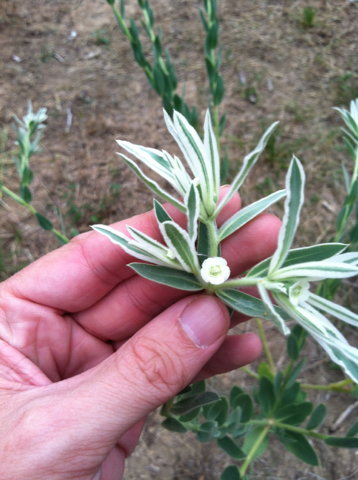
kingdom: Plantae
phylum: Tracheophyta
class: Magnoliopsida
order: Malpighiales
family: Euphorbiaceae
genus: Euphorbia
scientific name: Euphorbia bicolor
